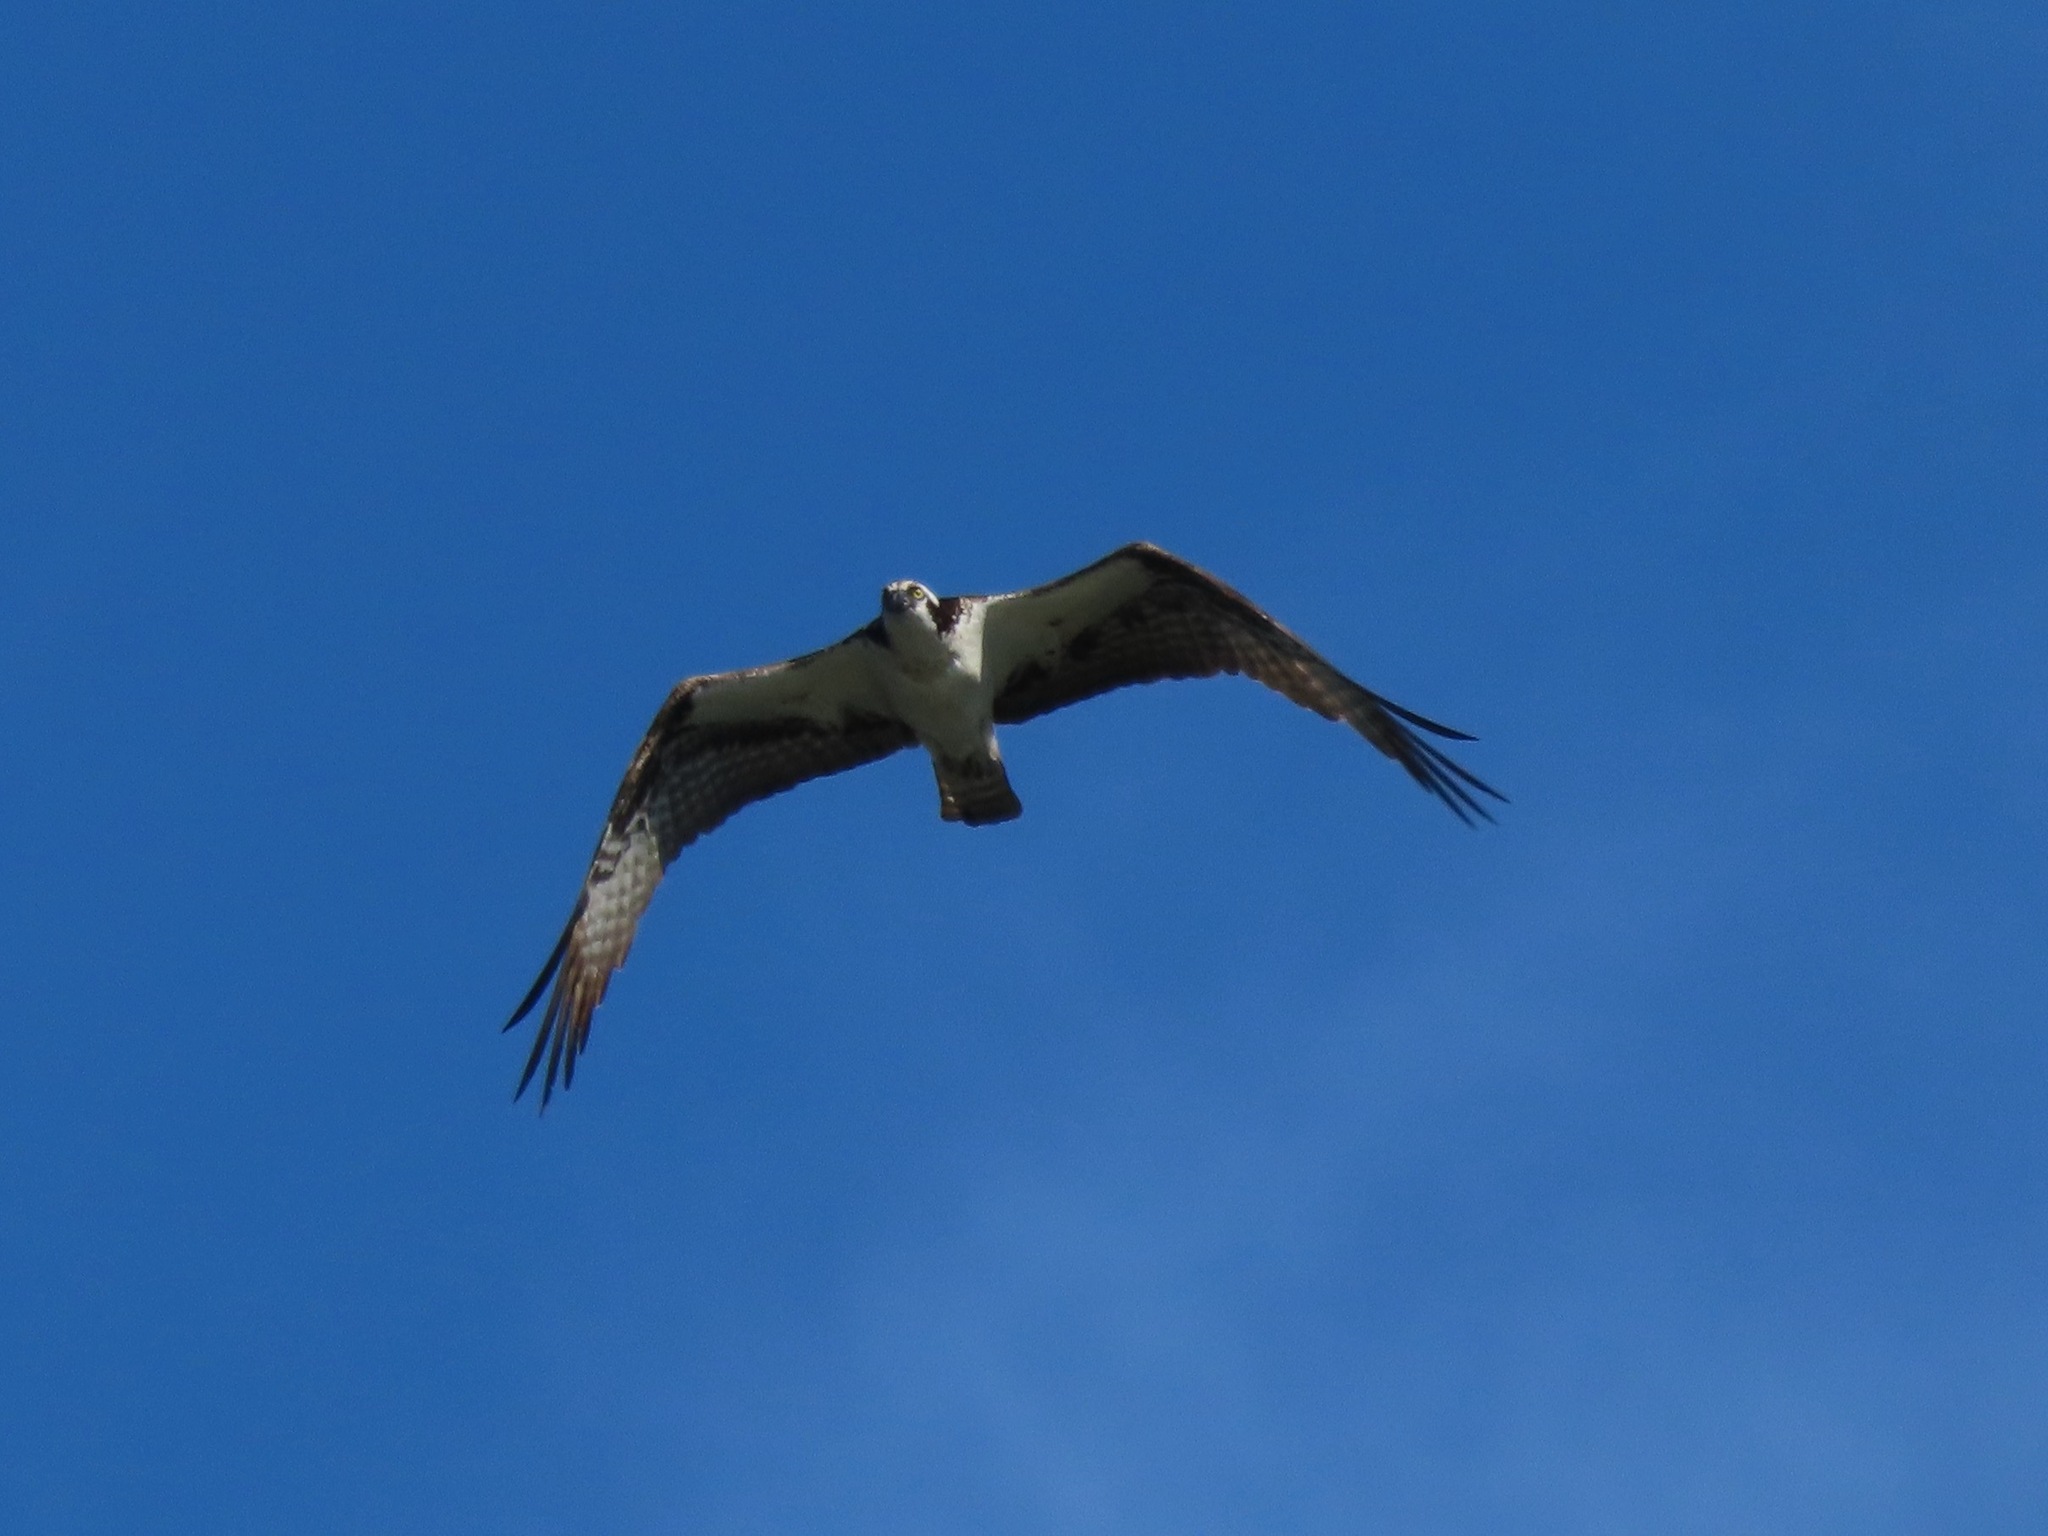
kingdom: Animalia
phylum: Chordata
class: Aves
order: Accipitriformes
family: Pandionidae
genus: Pandion
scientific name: Pandion haliaetus
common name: Osprey
